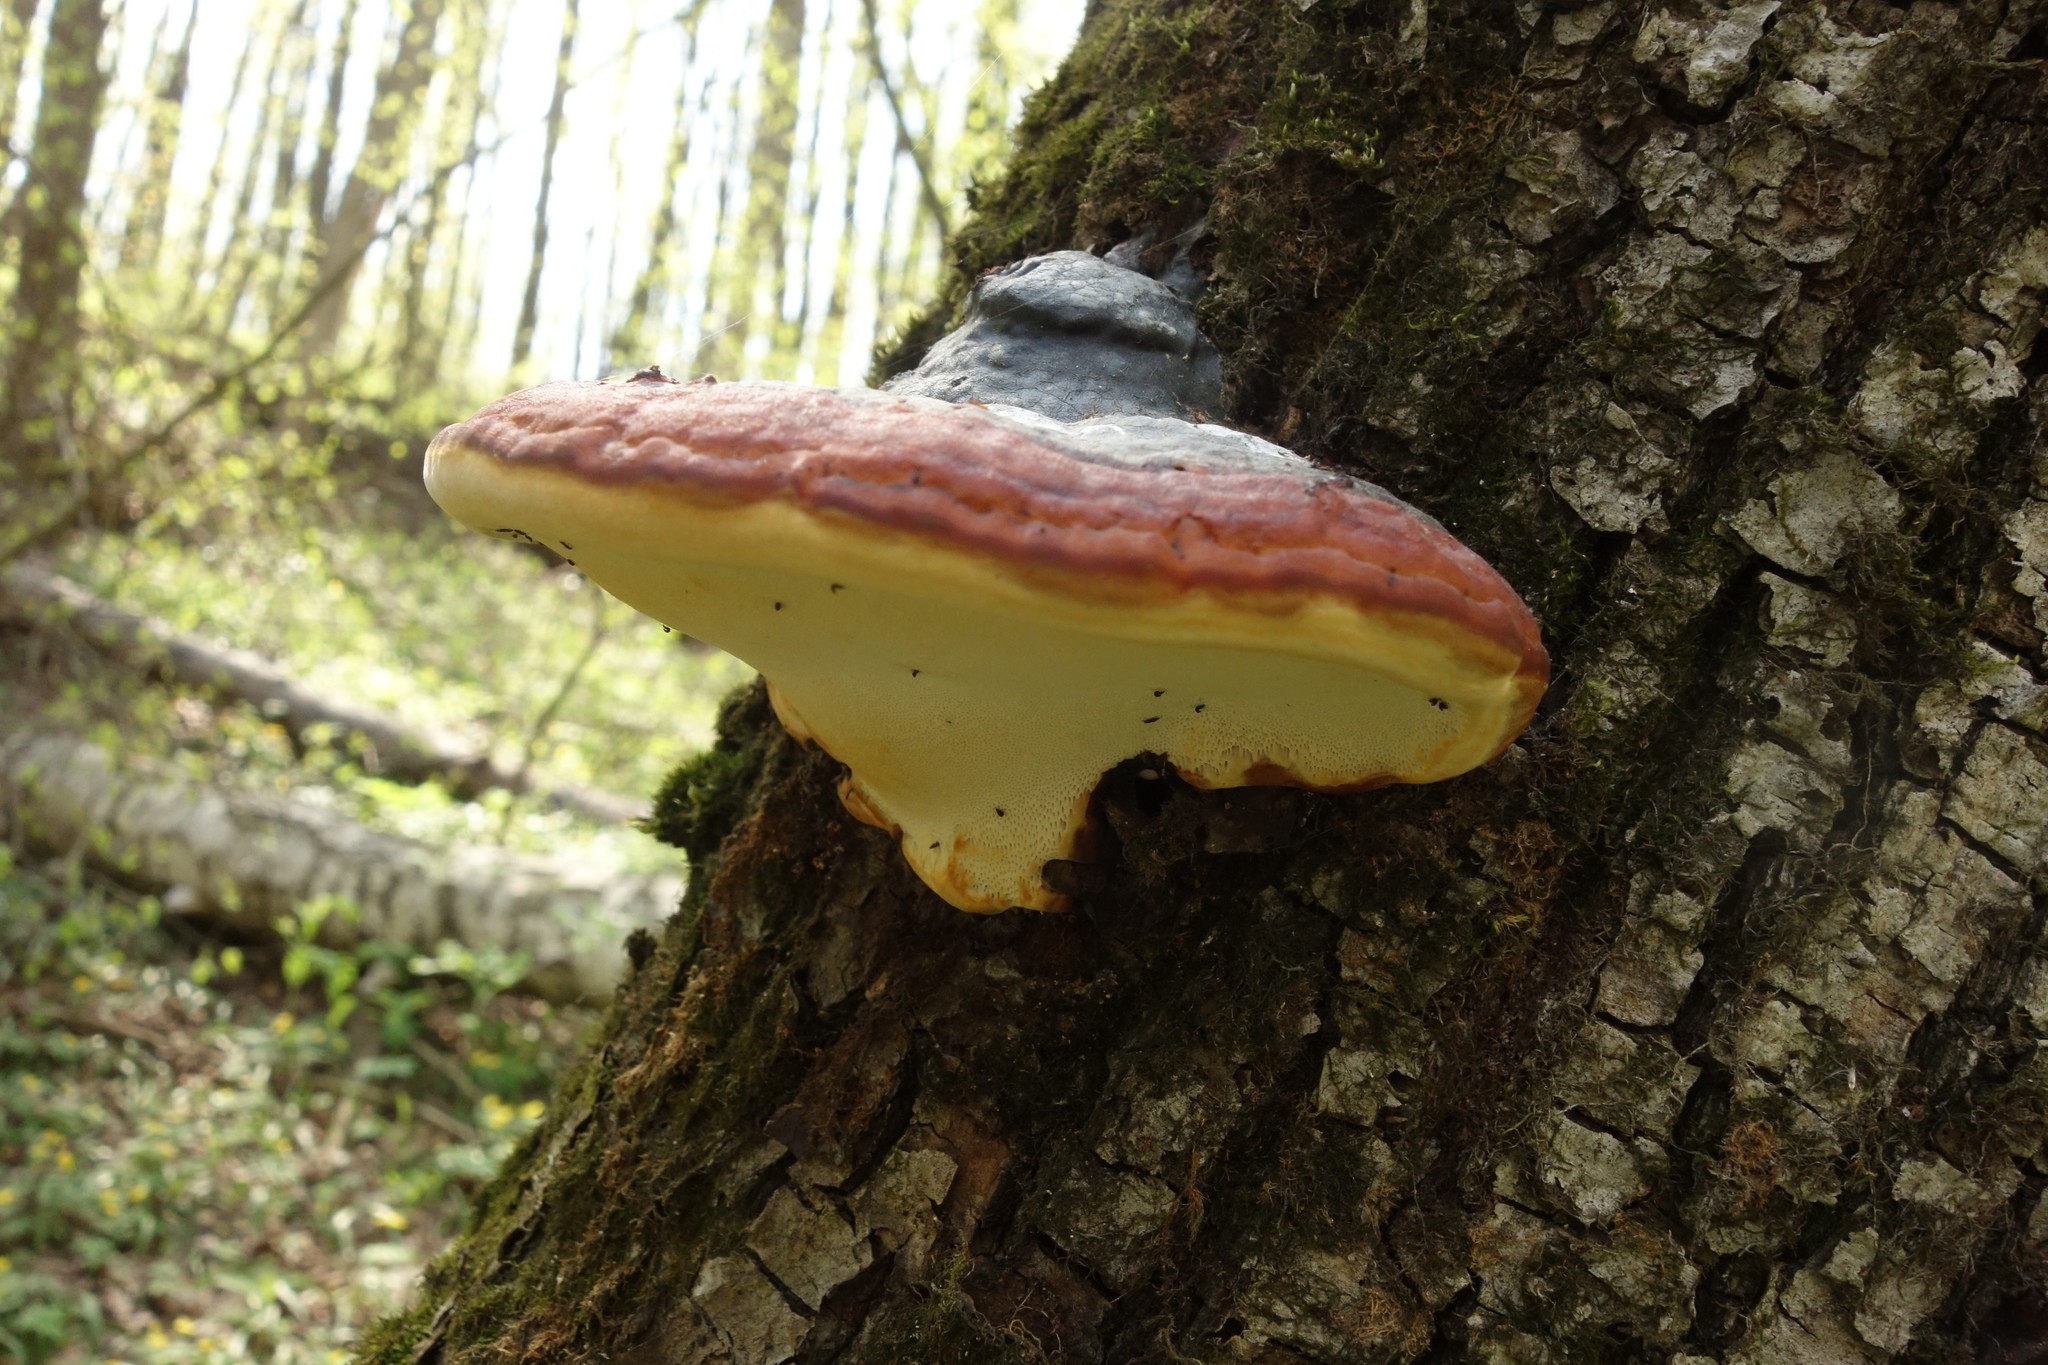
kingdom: Fungi
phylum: Basidiomycota
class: Agaricomycetes
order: Polyporales
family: Fomitopsidaceae
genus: Fomitopsis
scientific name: Fomitopsis pinicola
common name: Red-belted bracket
